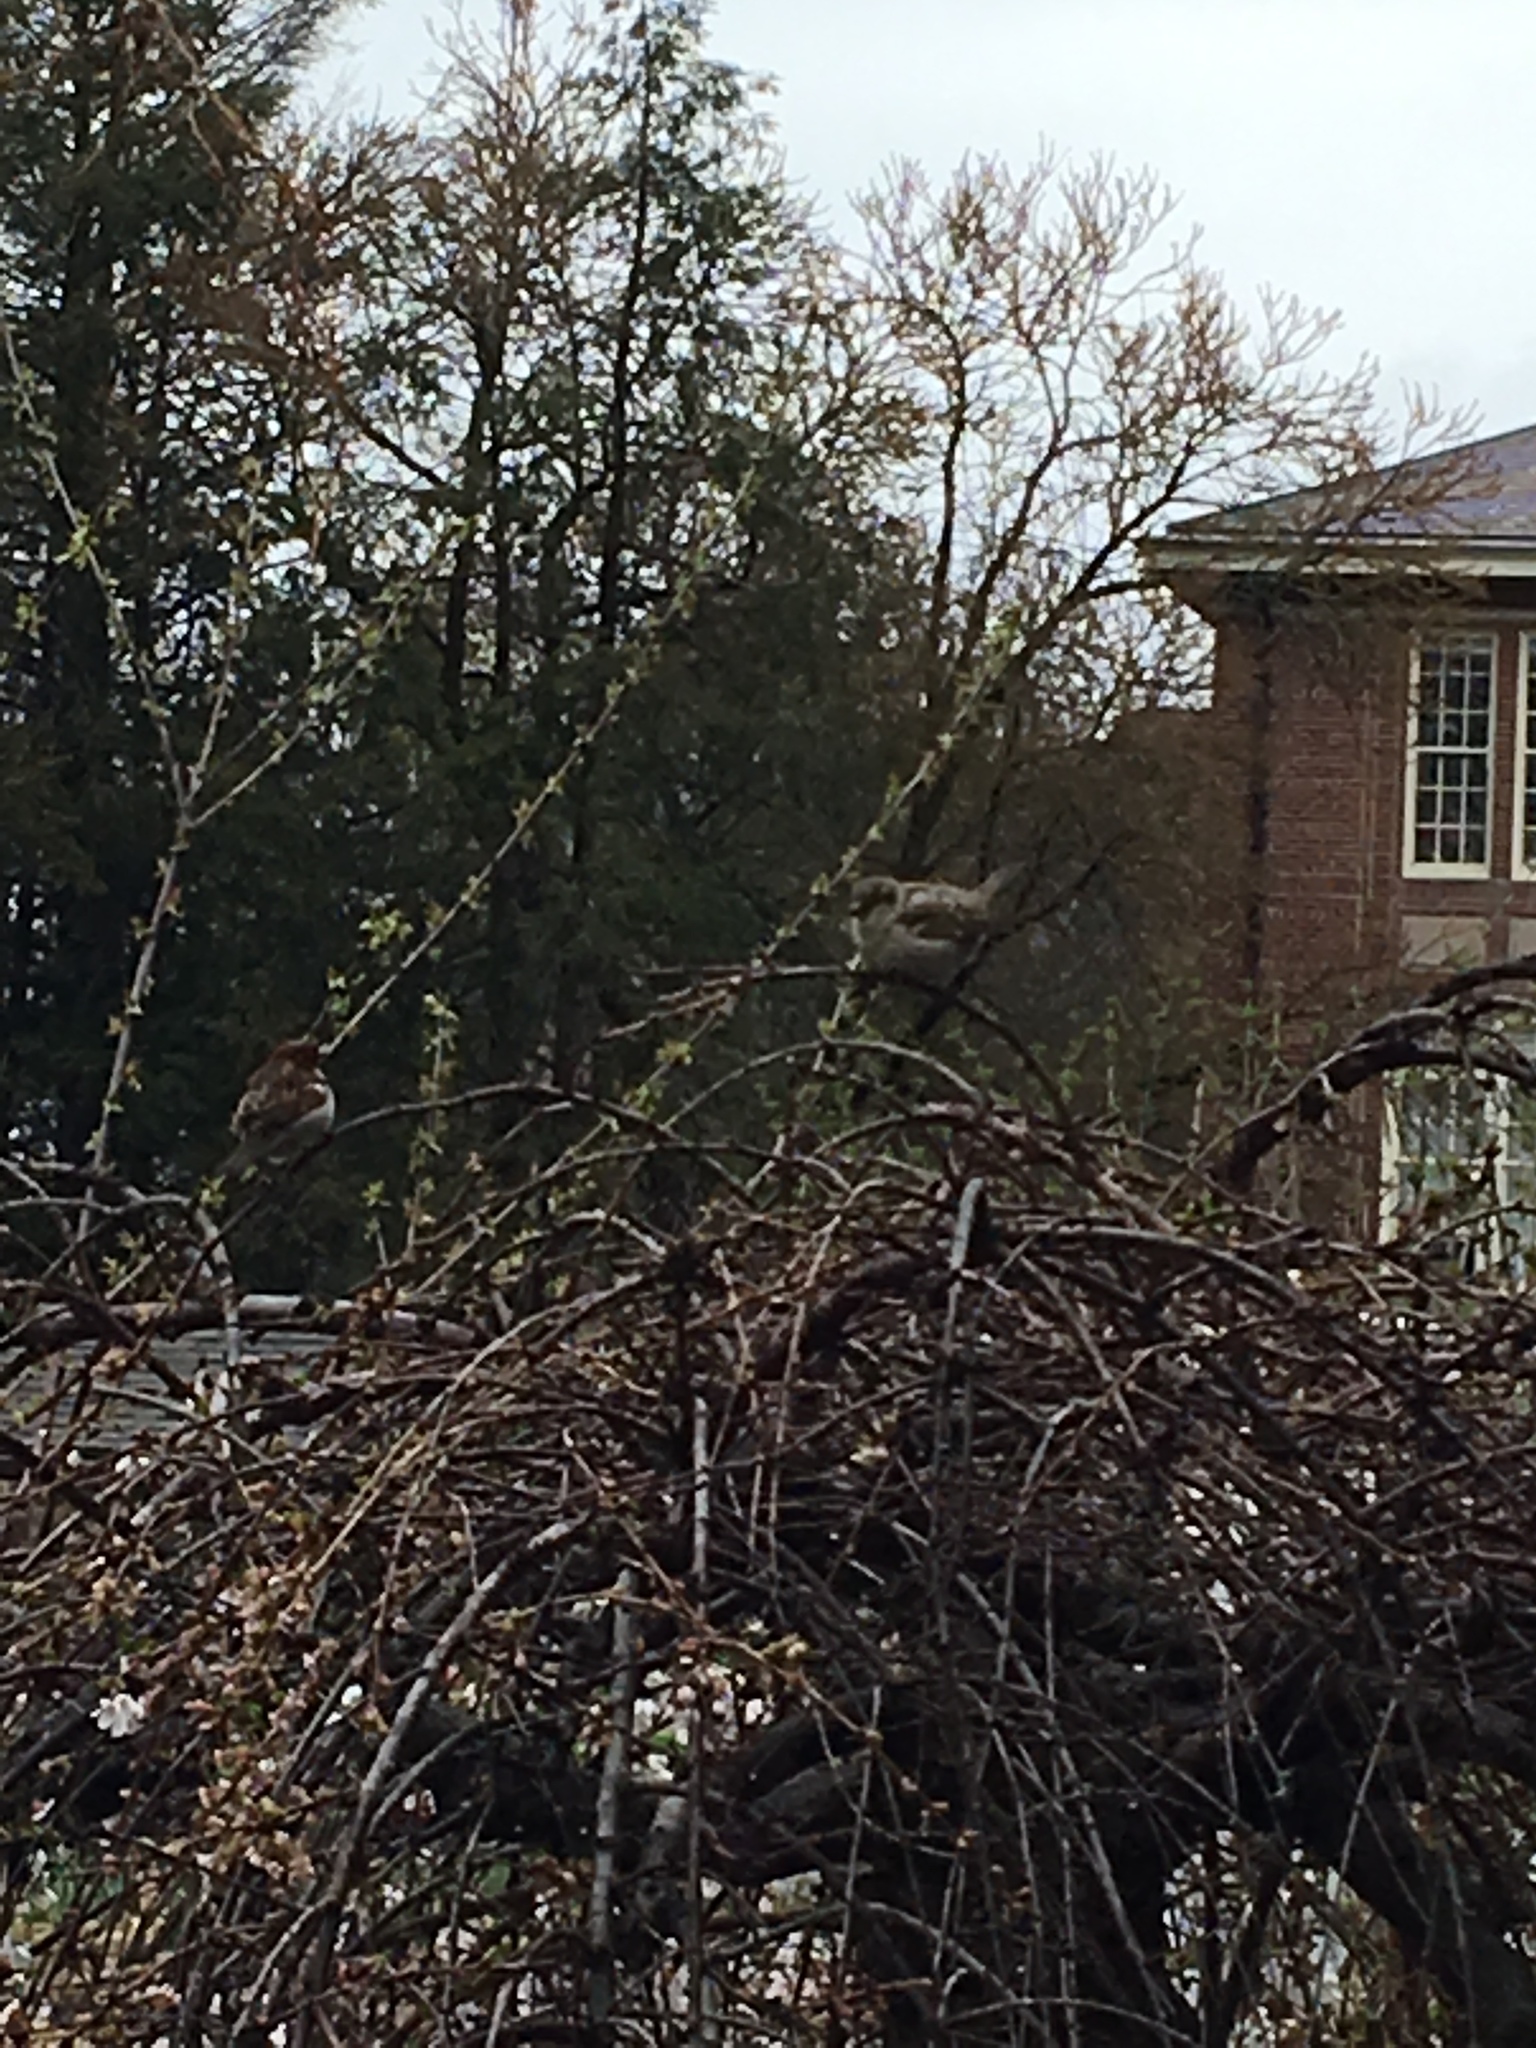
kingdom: Animalia
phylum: Chordata
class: Aves
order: Passeriformes
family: Passeridae
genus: Passer
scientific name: Passer domesticus
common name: House sparrow
